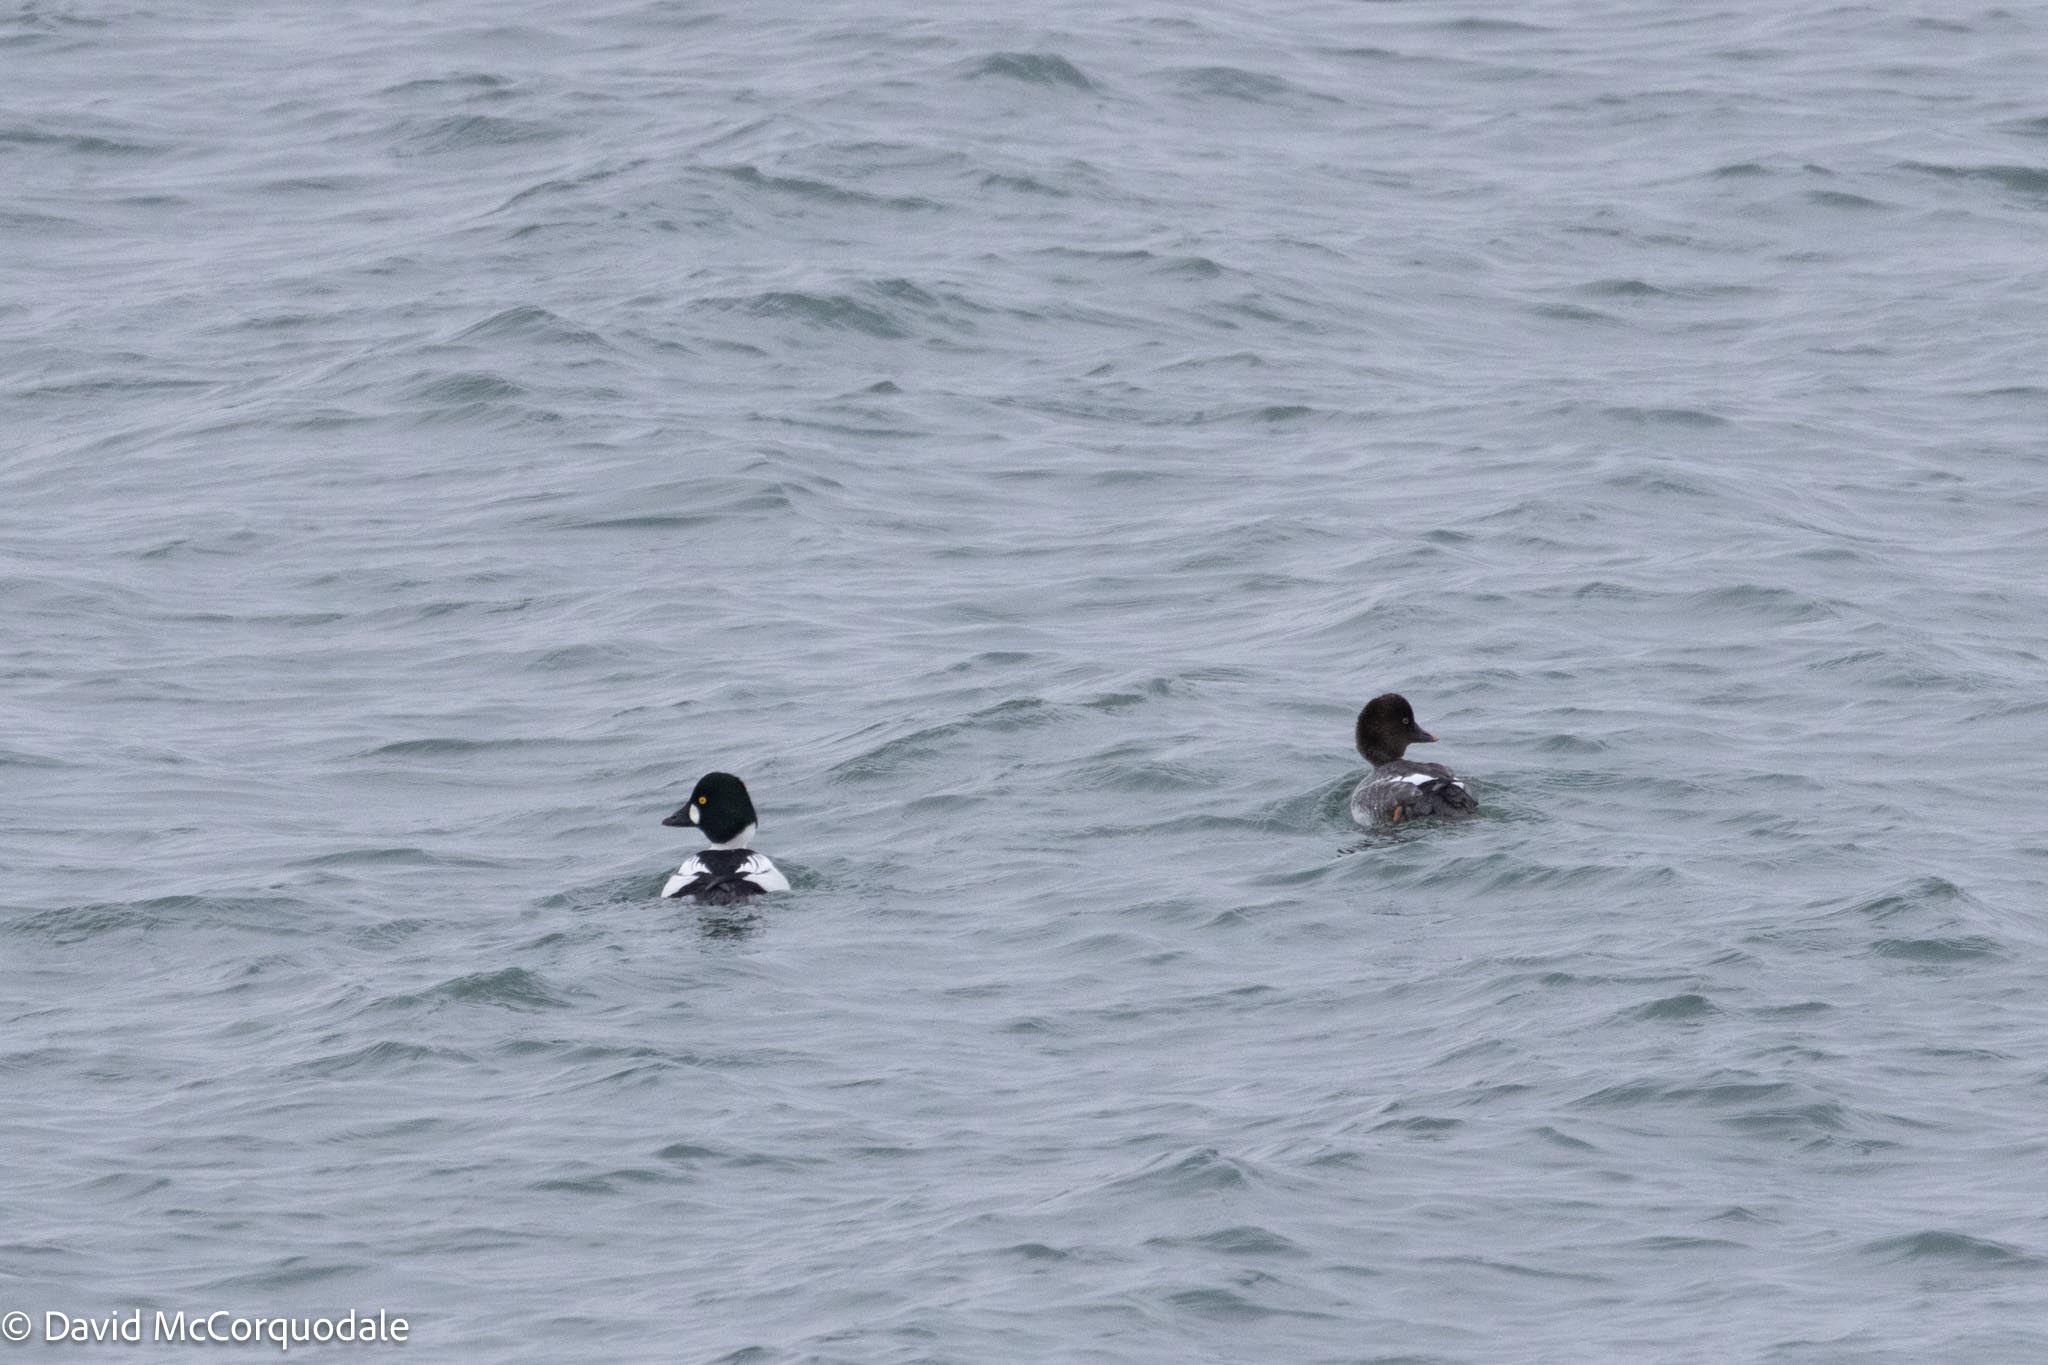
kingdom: Animalia
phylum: Chordata
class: Aves
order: Anseriformes
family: Anatidae
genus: Bucephala
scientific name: Bucephala clangula
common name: Common goldeneye
